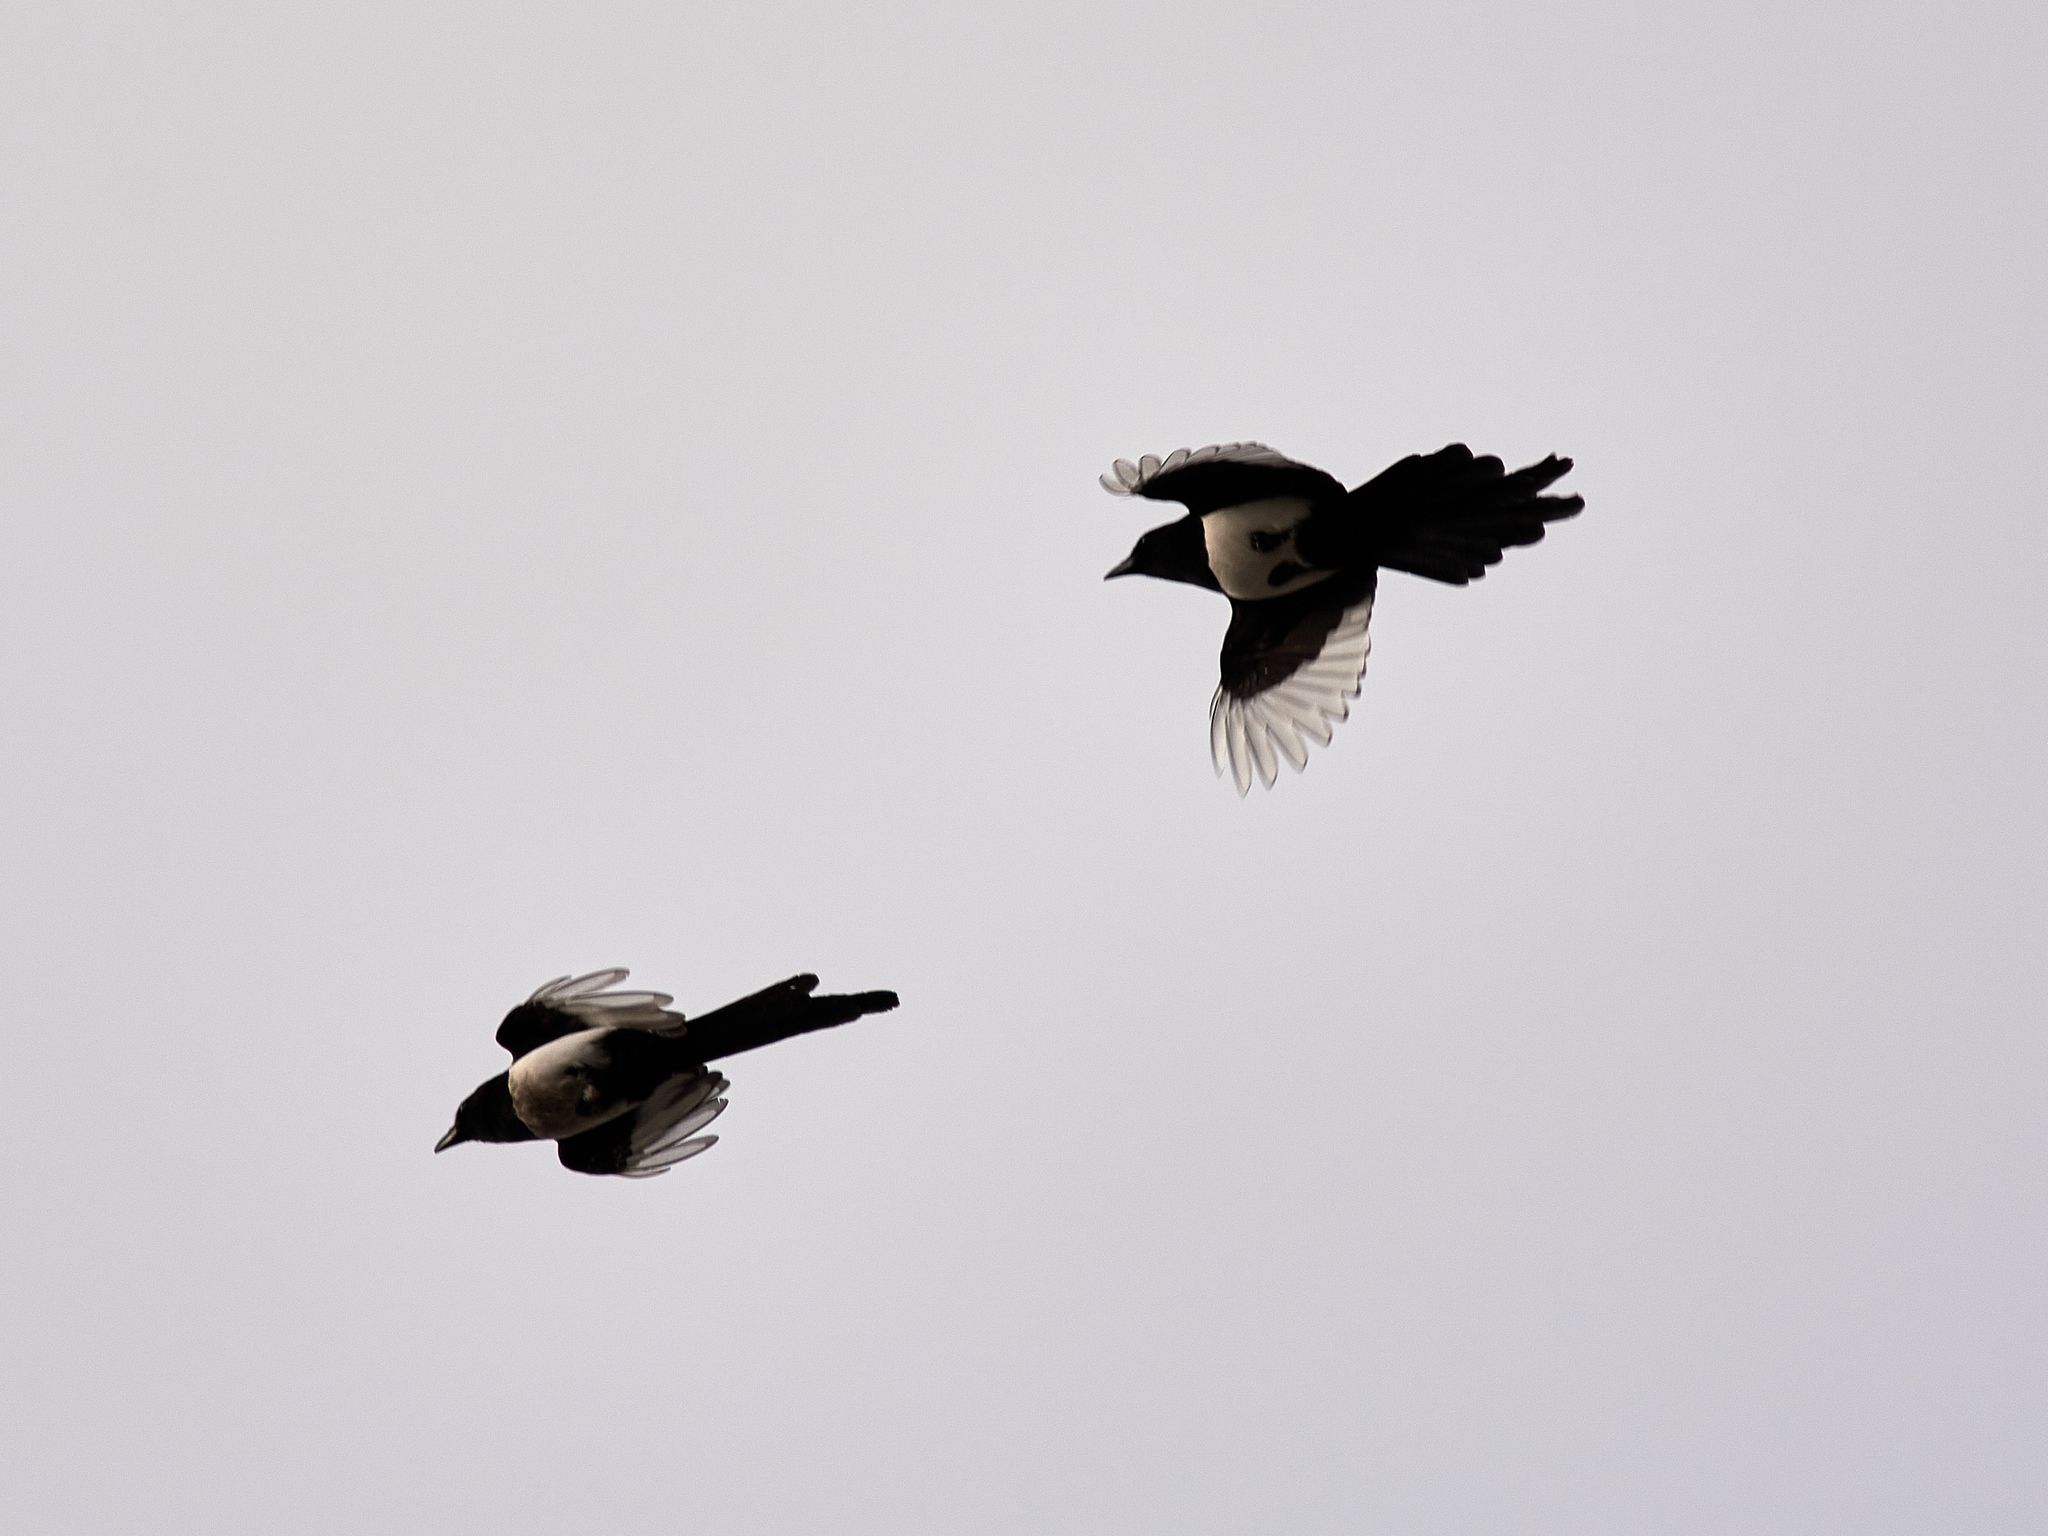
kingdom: Animalia
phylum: Chordata
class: Aves
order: Passeriformes
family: Corvidae
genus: Pica
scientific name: Pica pica
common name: Eurasian magpie
